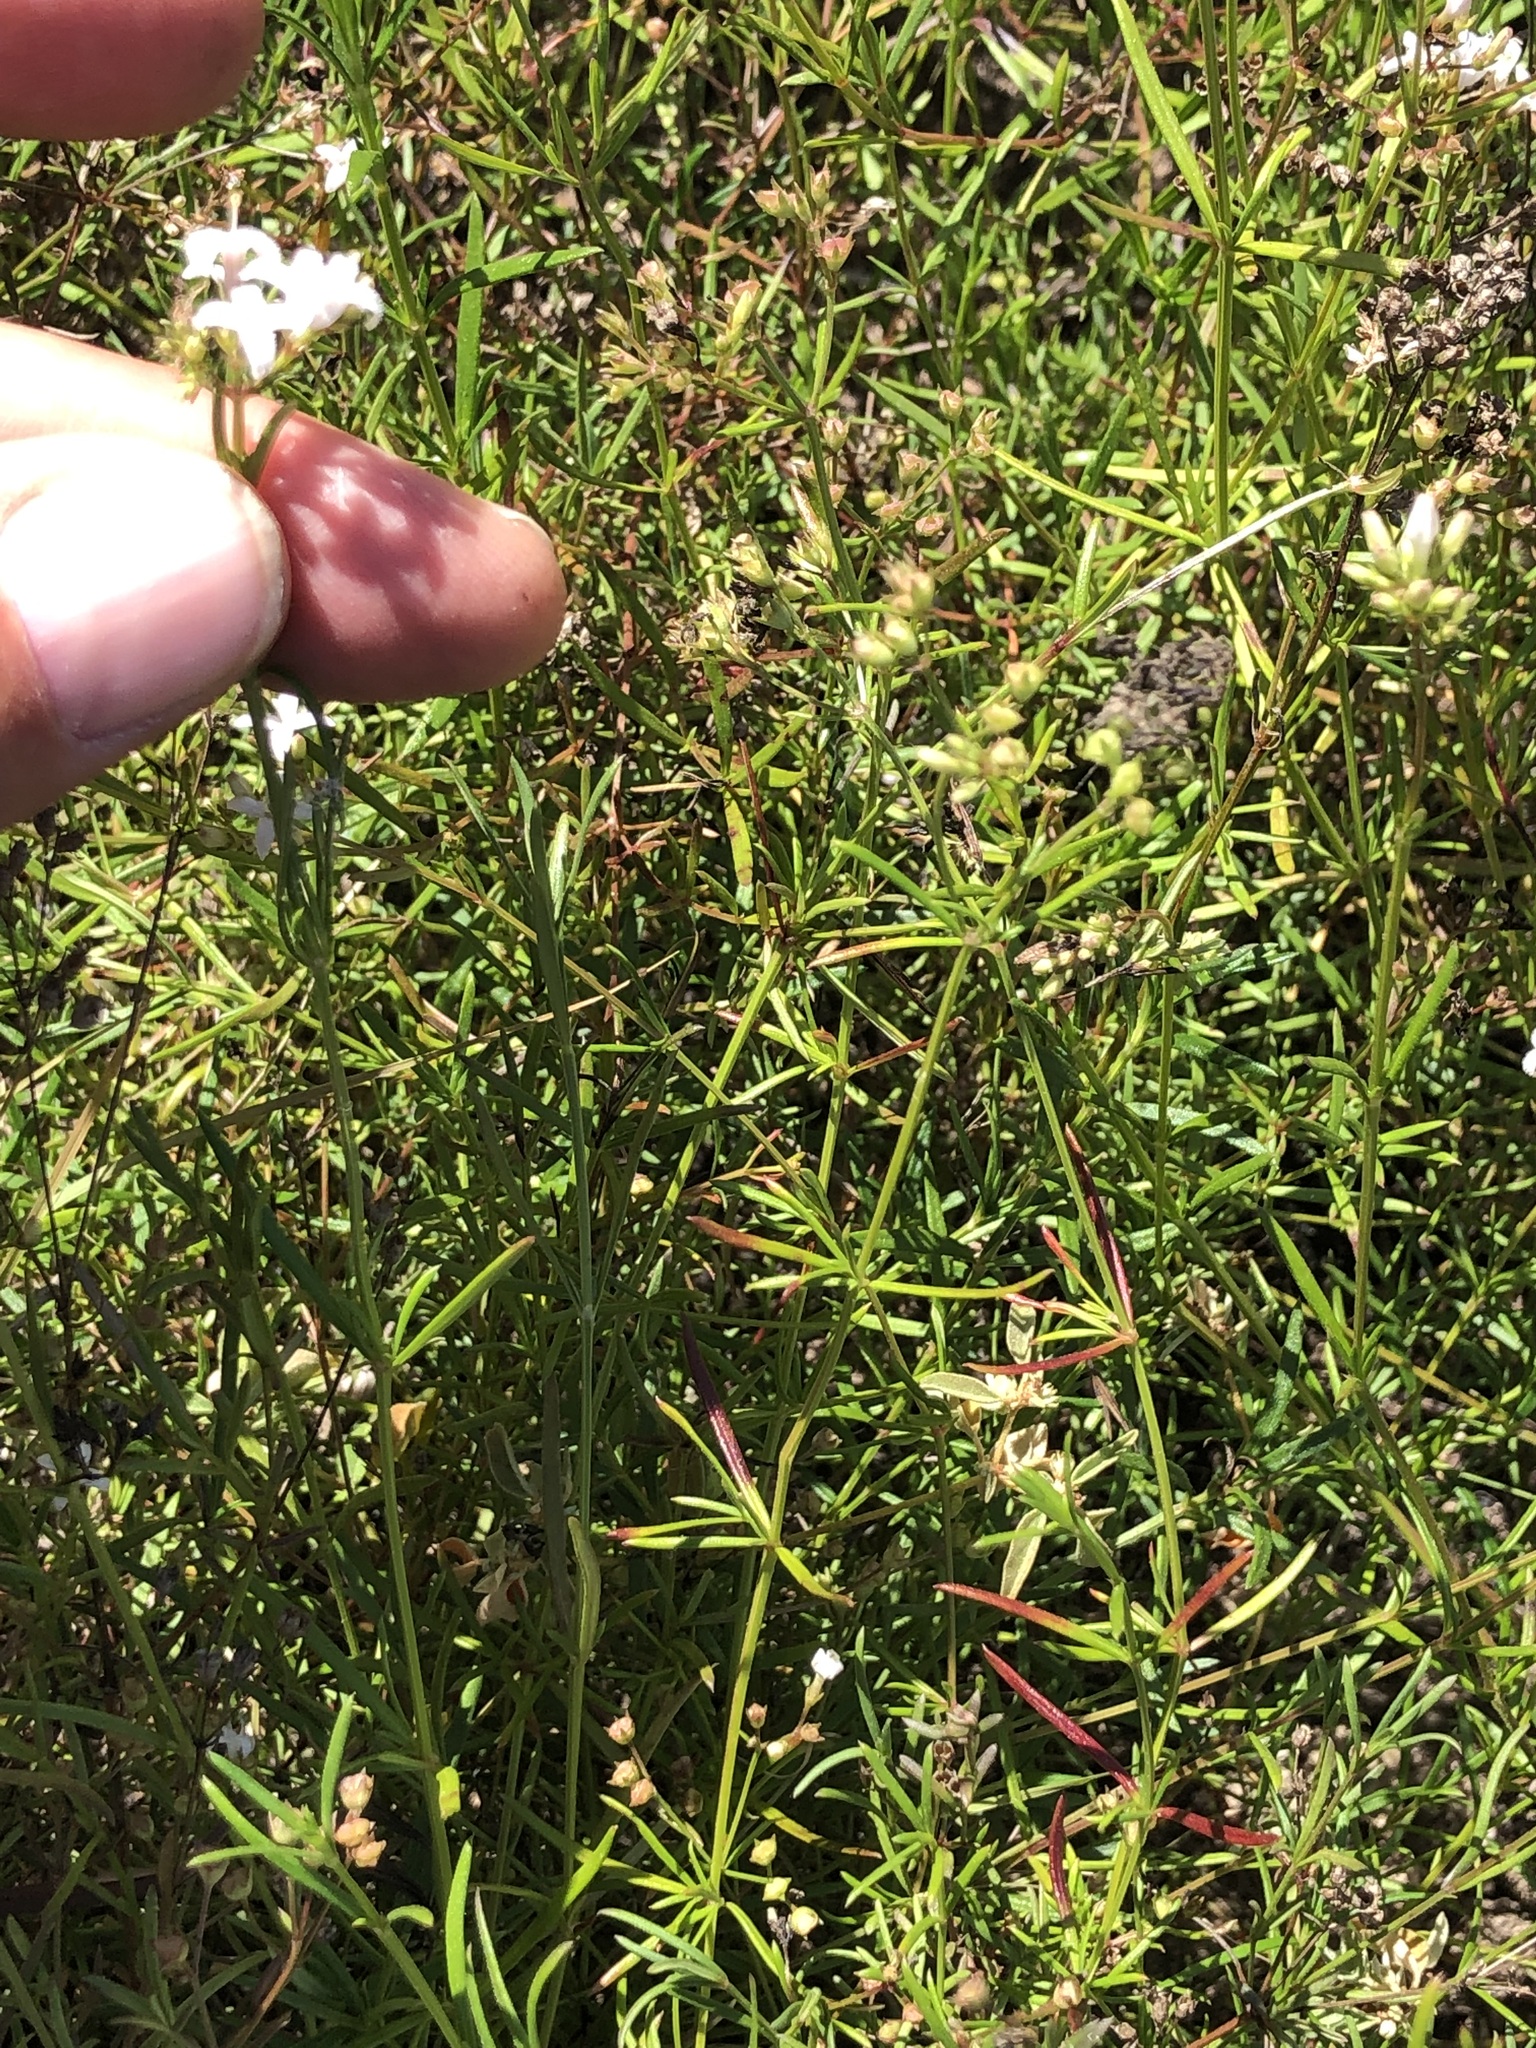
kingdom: Plantae
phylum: Tracheophyta
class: Magnoliopsida
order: Gentianales
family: Rubiaceae
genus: Stenaria
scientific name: Stenaria nigricans
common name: Diamondflowers
